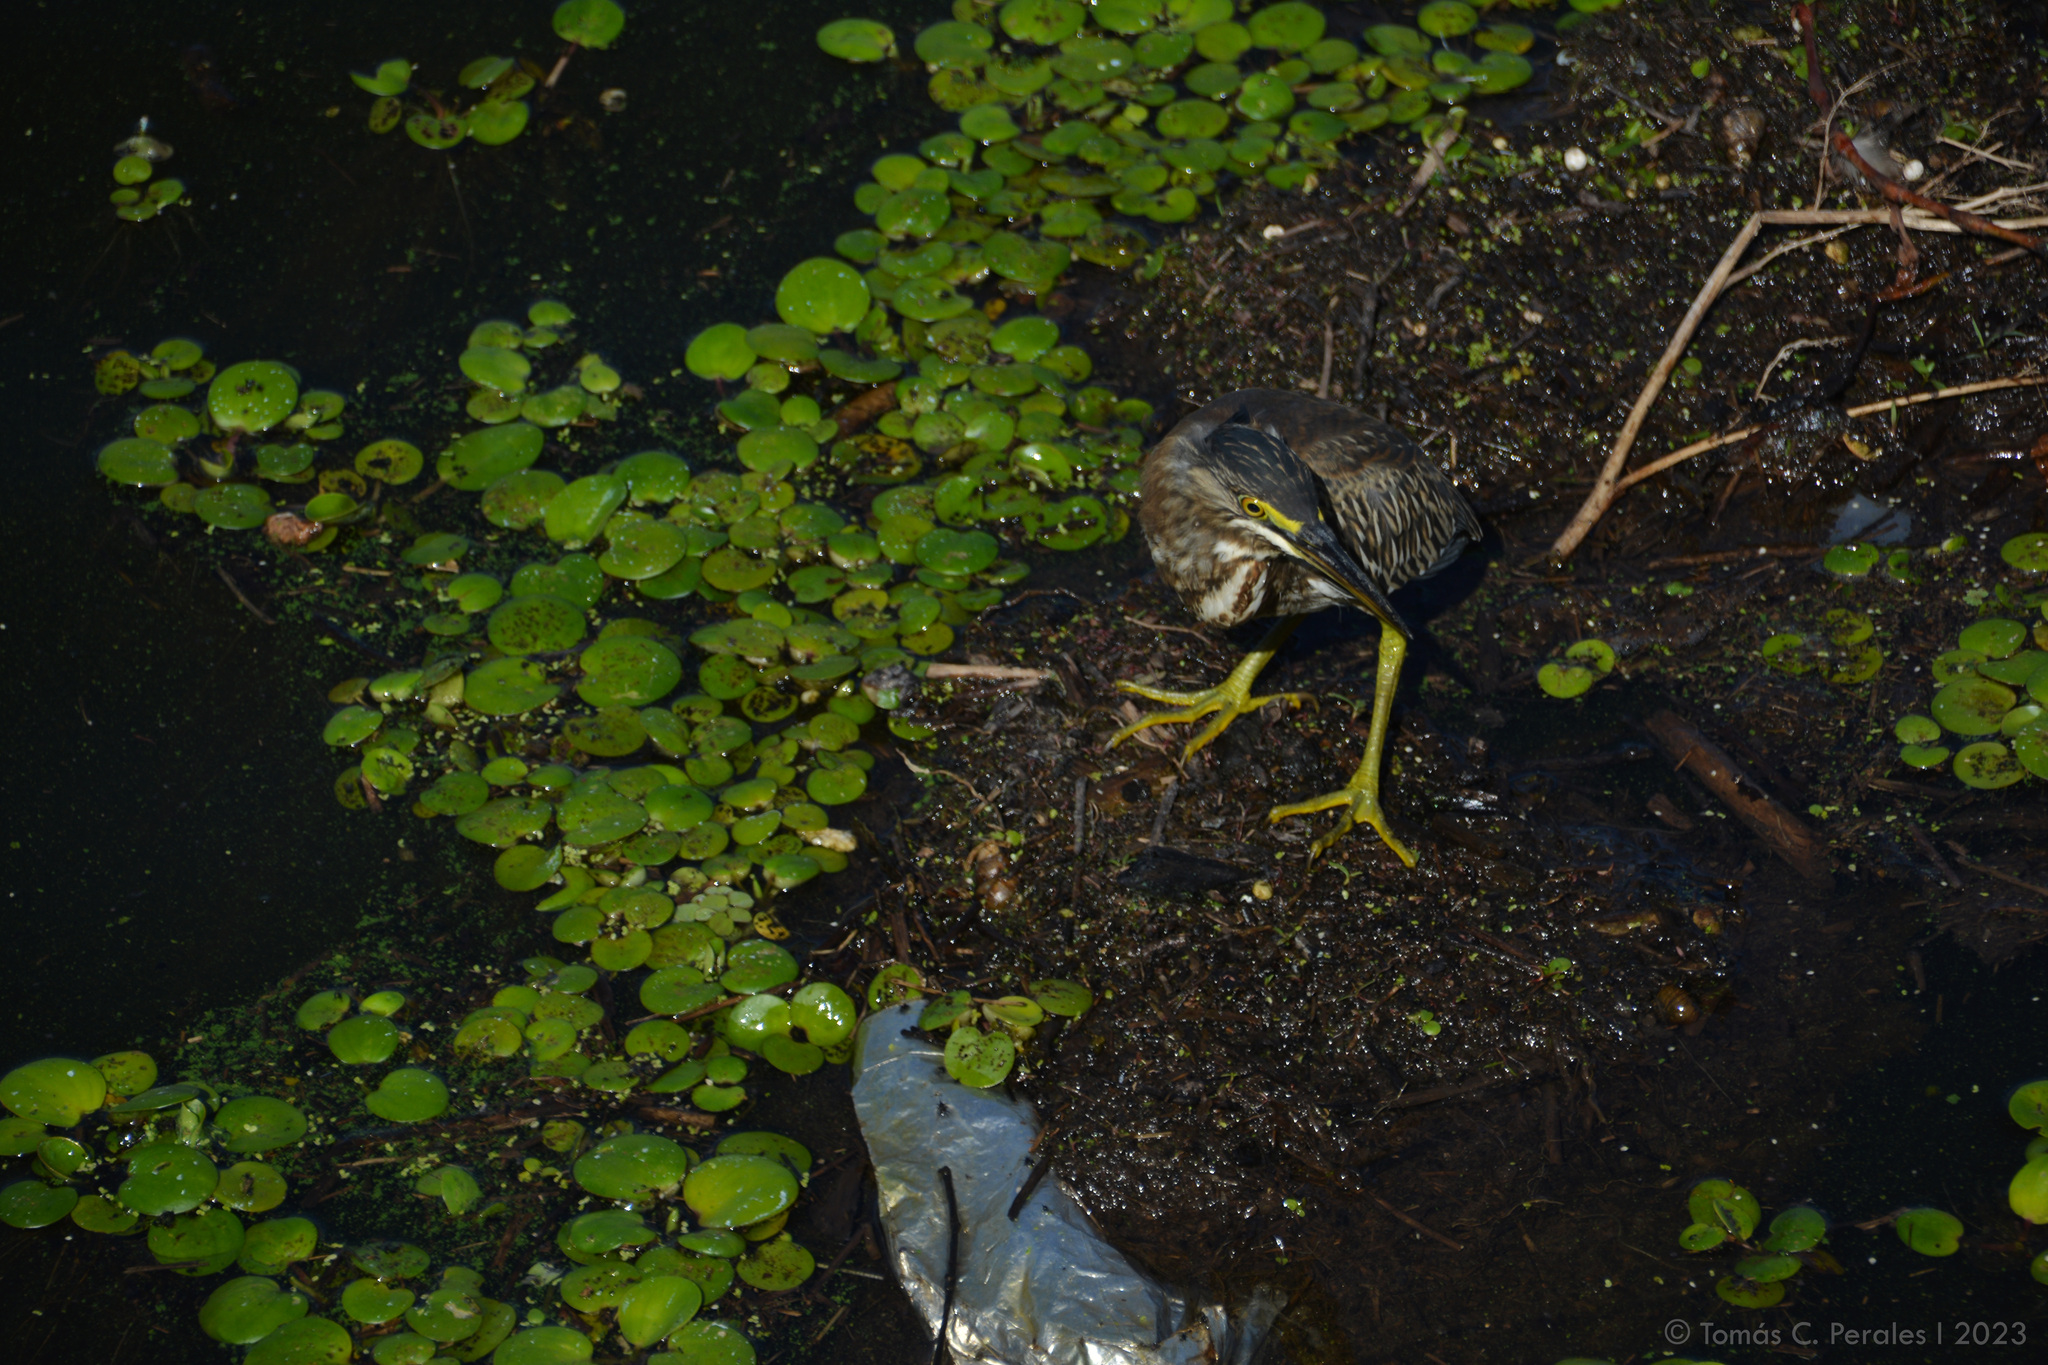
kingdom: Animalia
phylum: Chordata
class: Aves
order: Pelecaniformes
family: Ardeidae
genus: Butorides
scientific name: Butorides striata
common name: Striated heron
